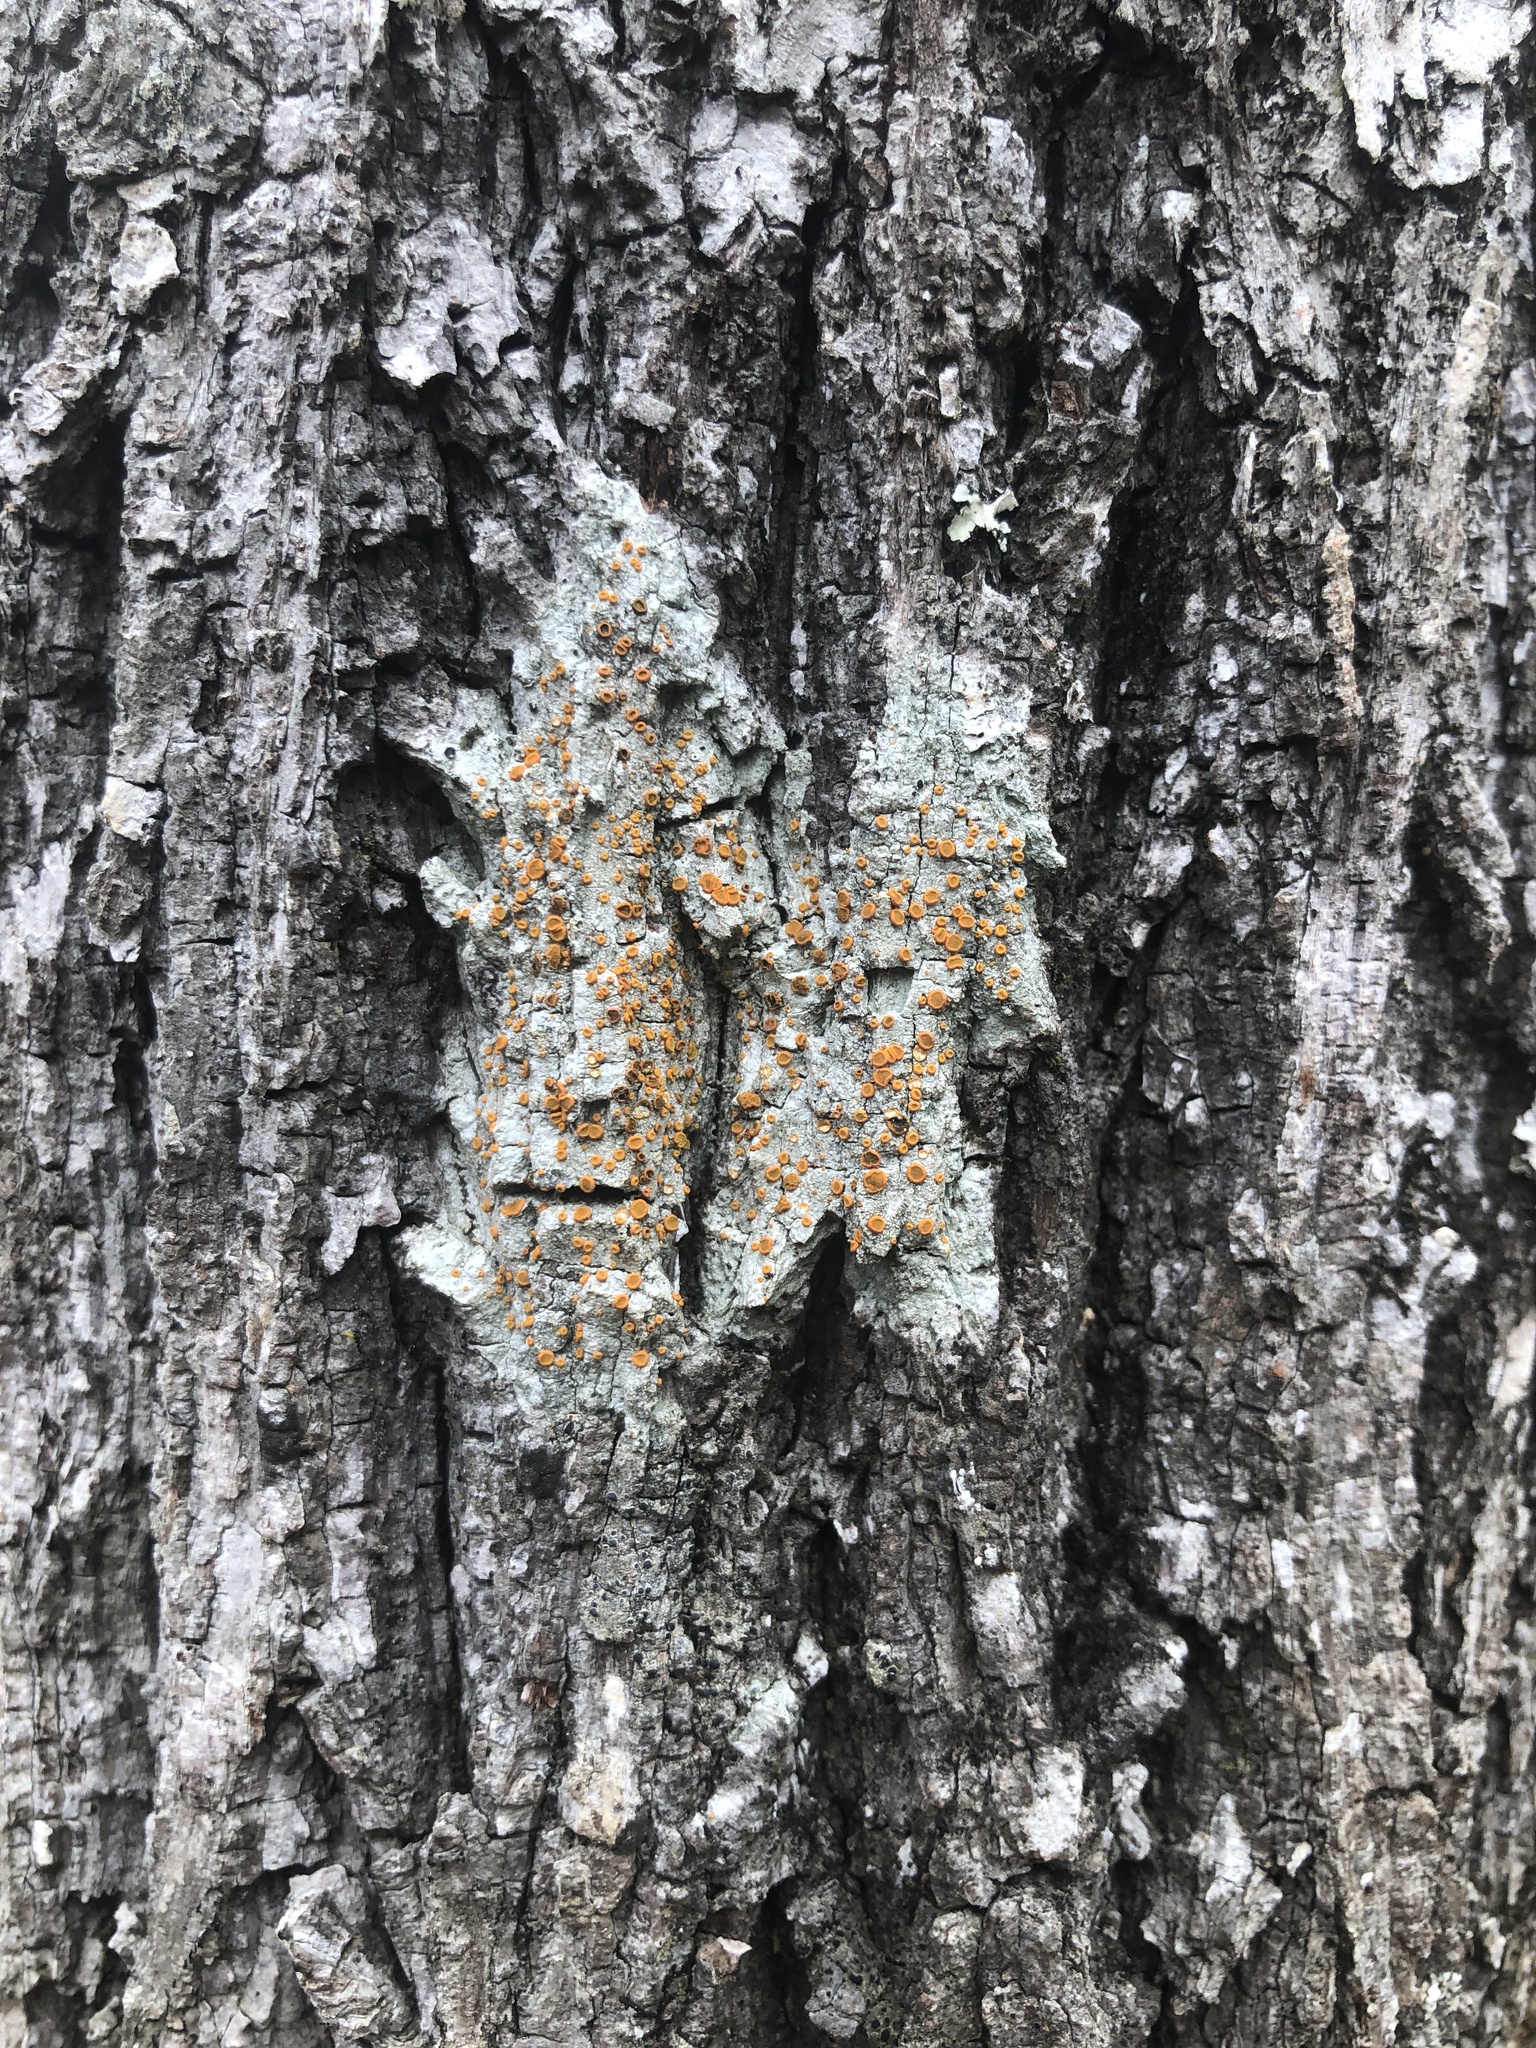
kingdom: Fungi
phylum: Ascomycota
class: Lecanoromycetes
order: Teloschistales
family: Brigantiaeaceae
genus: Brigantiaea
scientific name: Brigantiaea leucoxantha
